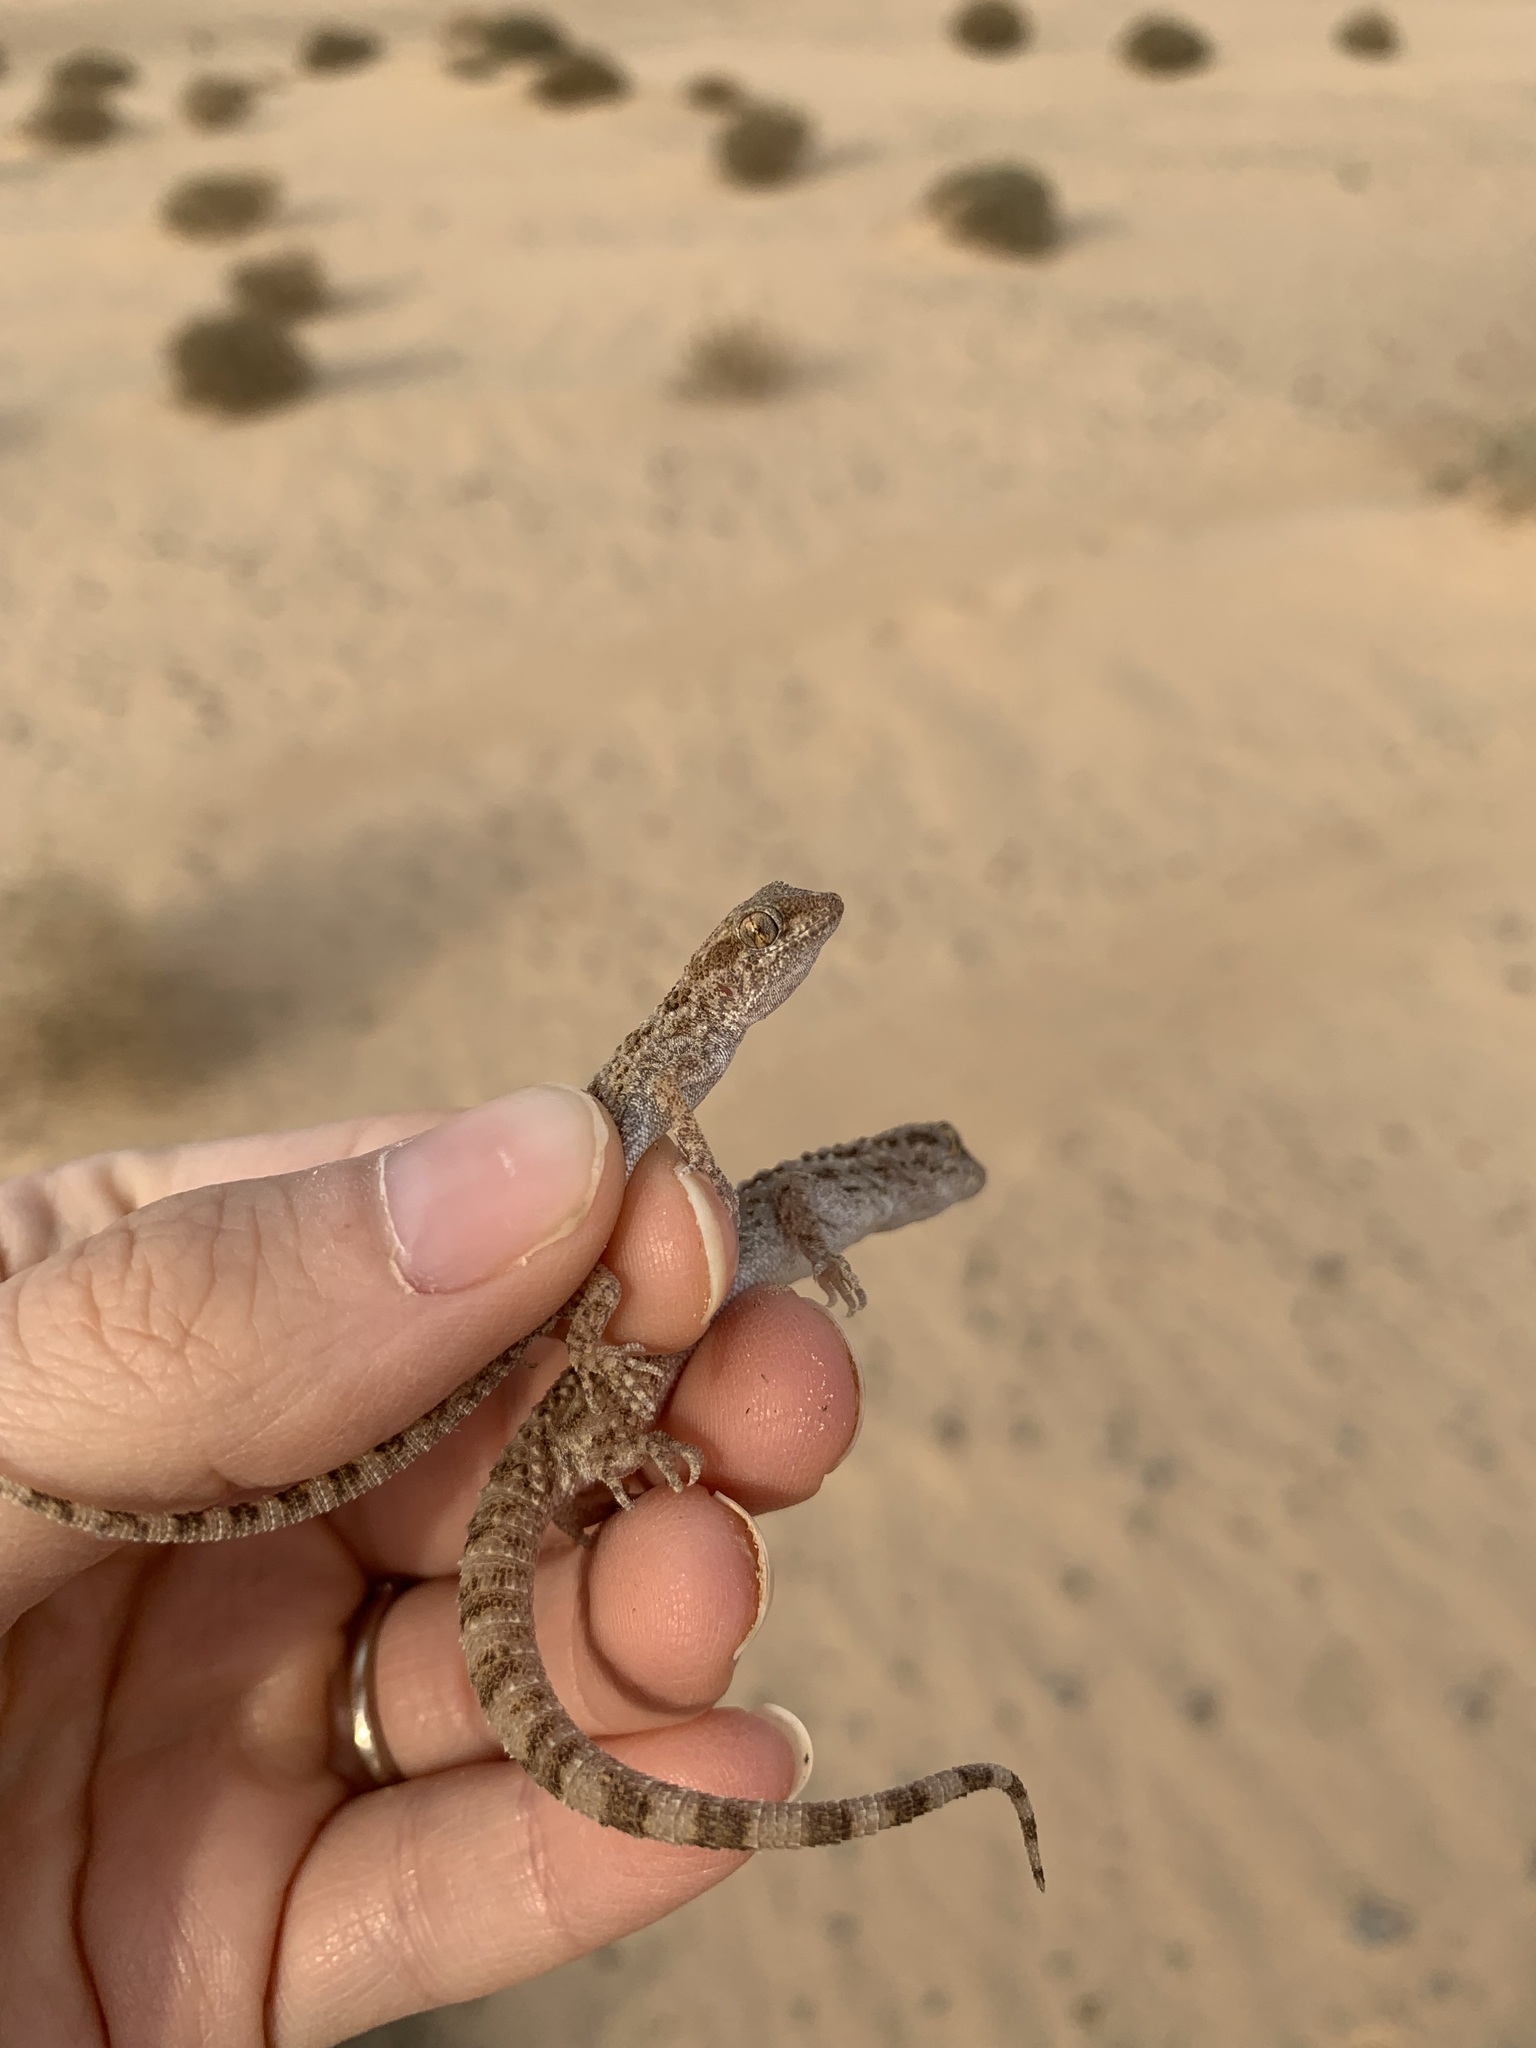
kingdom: Animalia
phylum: Chordata
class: Squamata
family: Gekkonidae
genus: Bunopus
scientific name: Bunopus tuberculatus
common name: Southern tuberculated gecko
